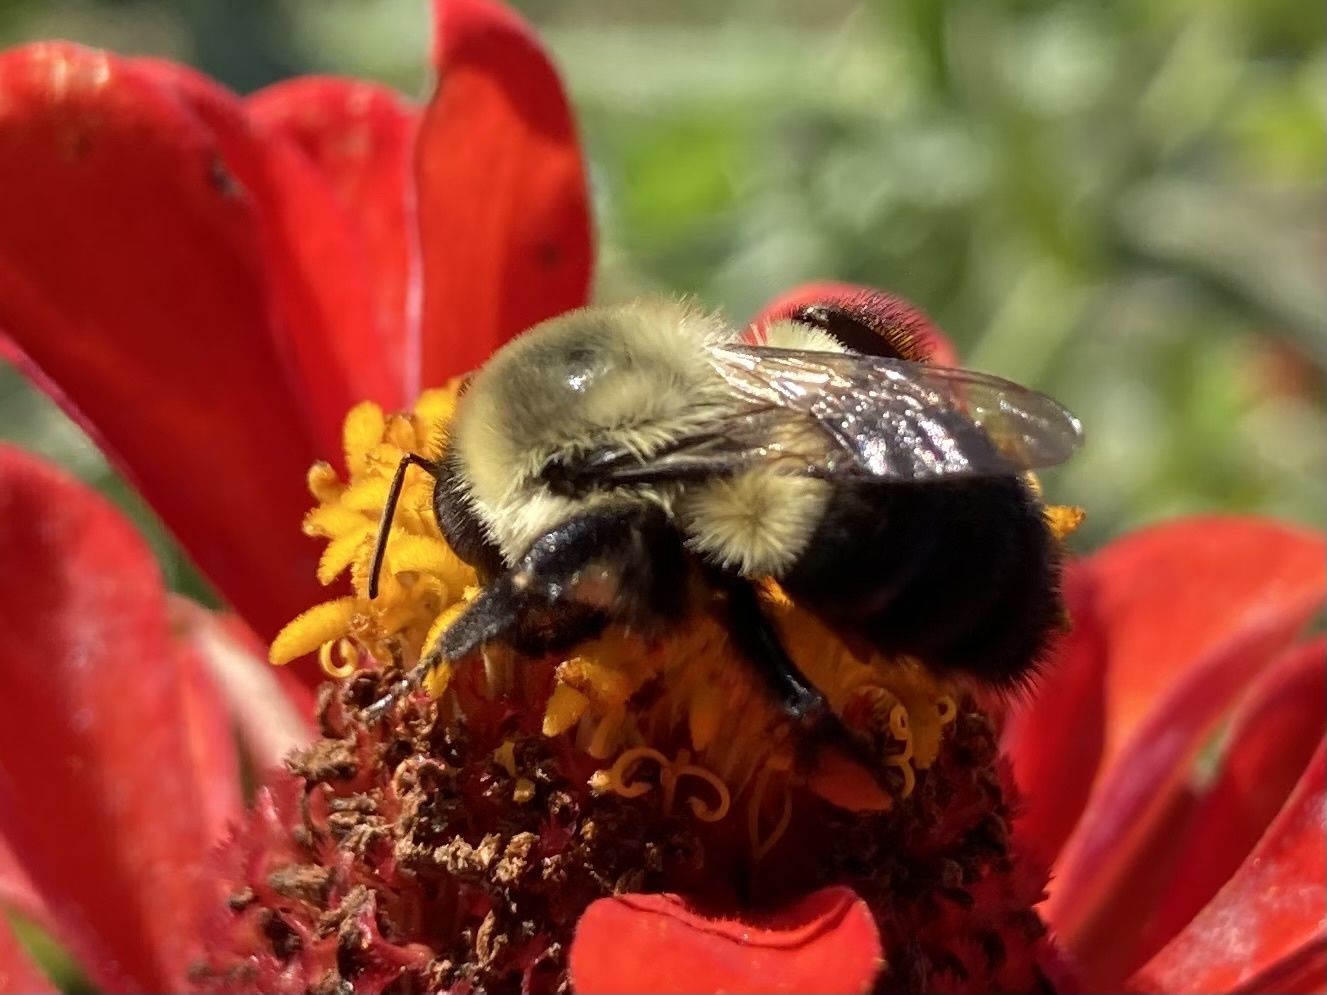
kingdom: Animalia
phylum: Arthropoda
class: Insecta
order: Hymenoptera
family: Apidae
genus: Bombus
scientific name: Bombus impatiens
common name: Common eastern bumble bee
